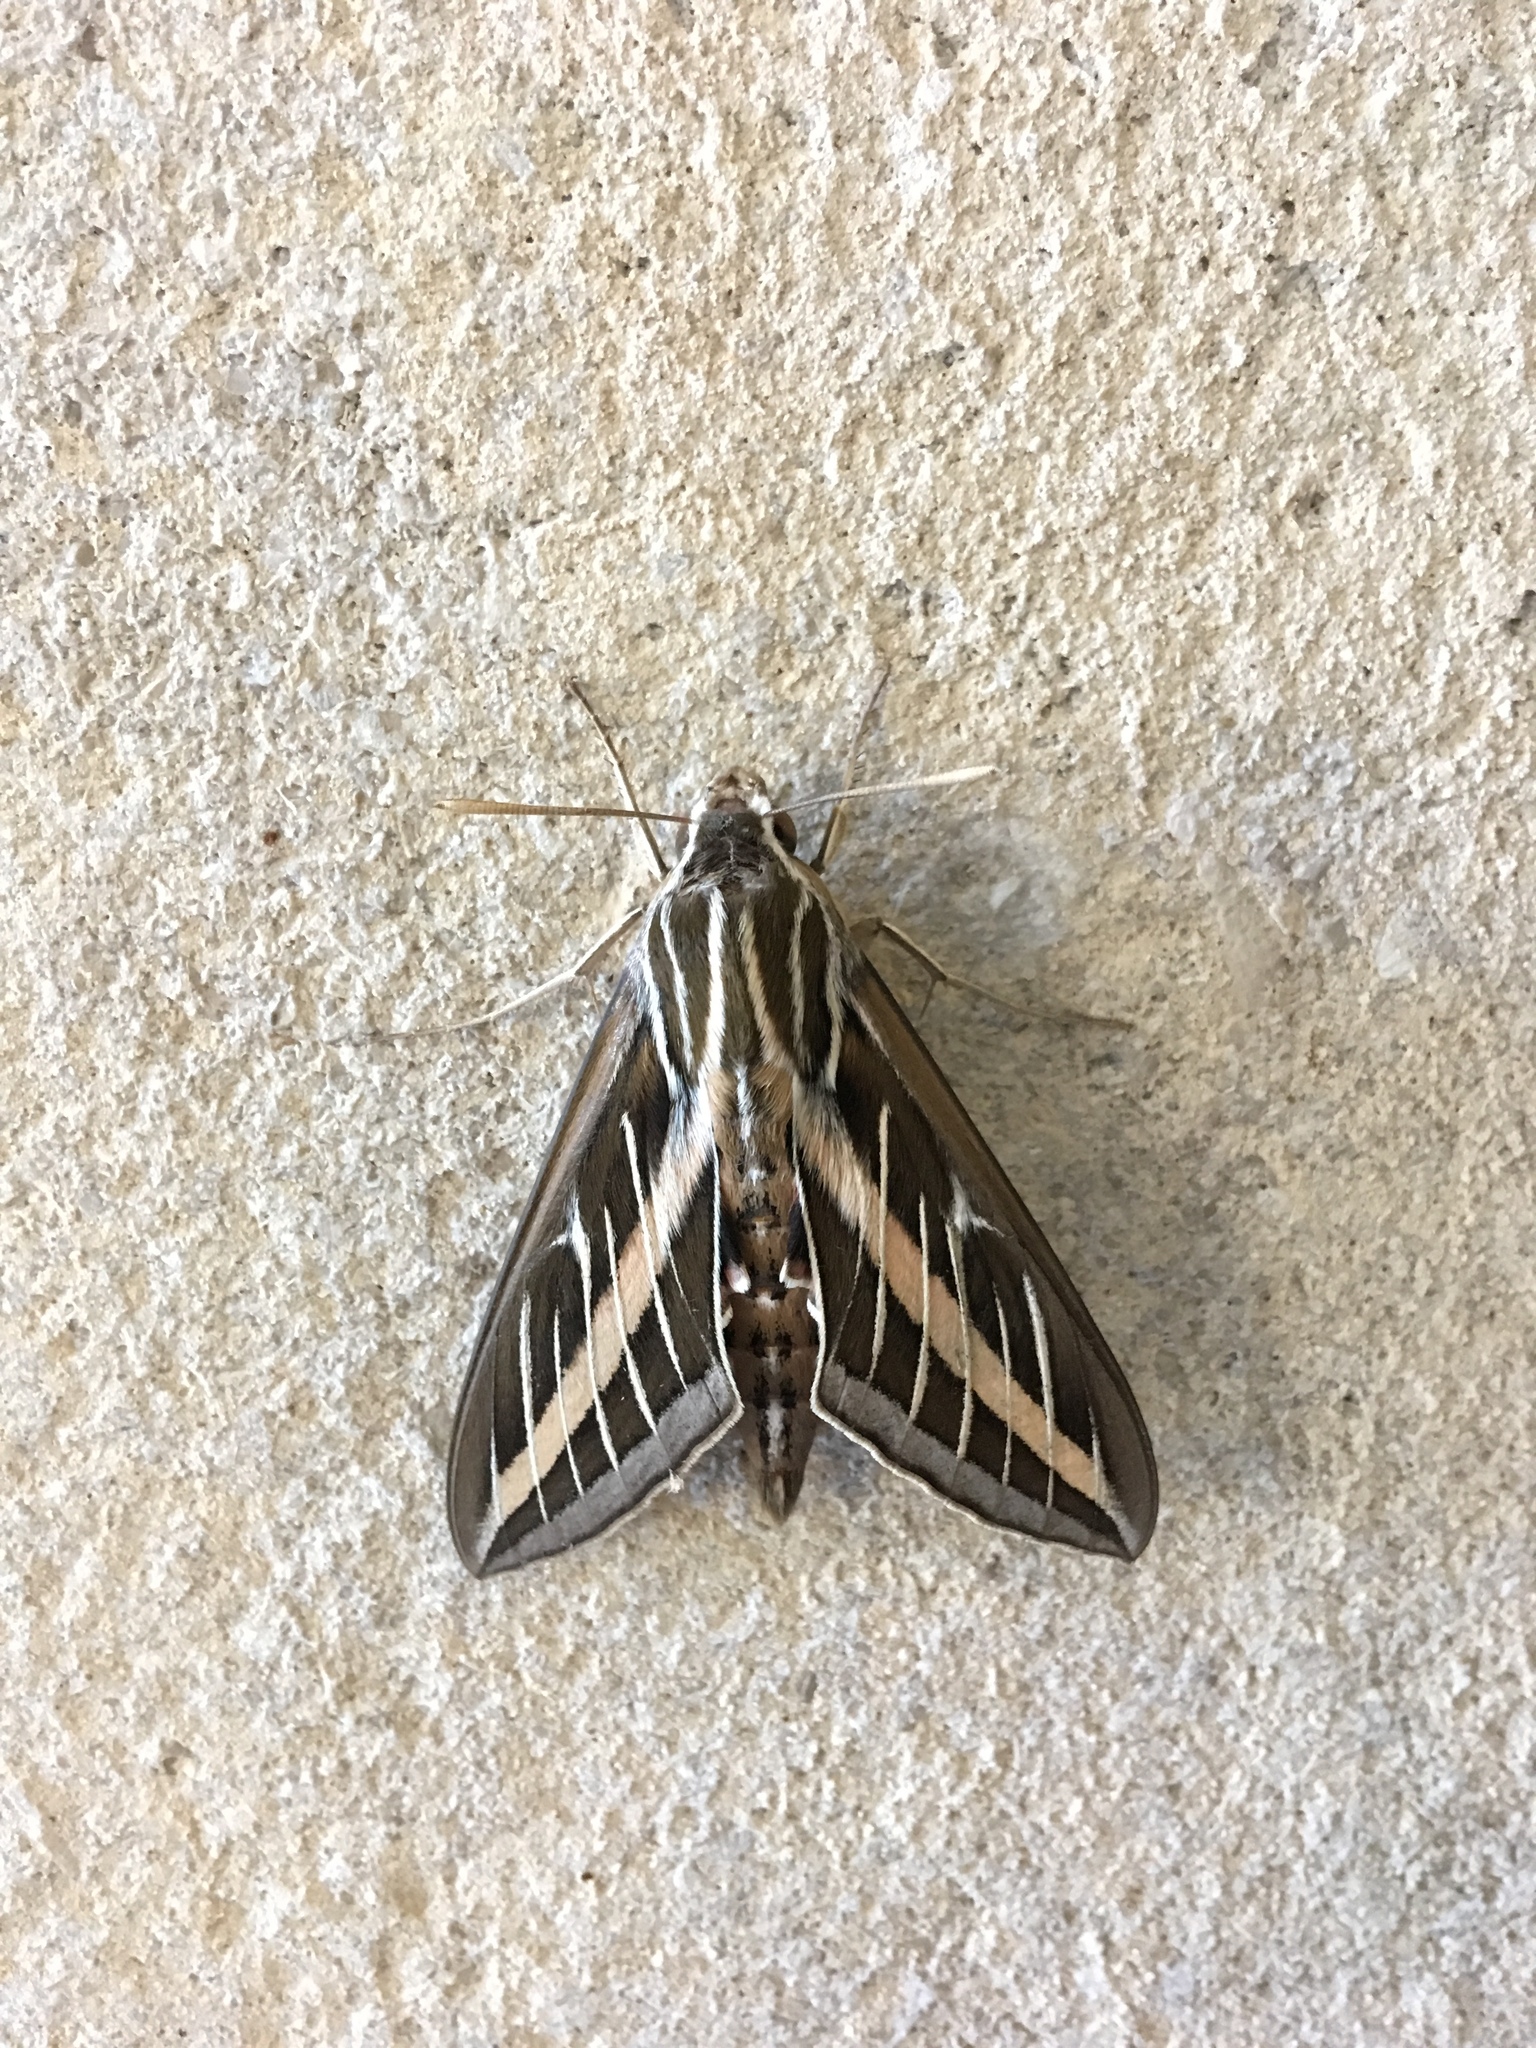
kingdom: Animalia
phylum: Arthropoda
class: Insecta
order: Lepidoptera
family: Sphingidae
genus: Hyles
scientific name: Hyles lineata
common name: White-lined sphinx
